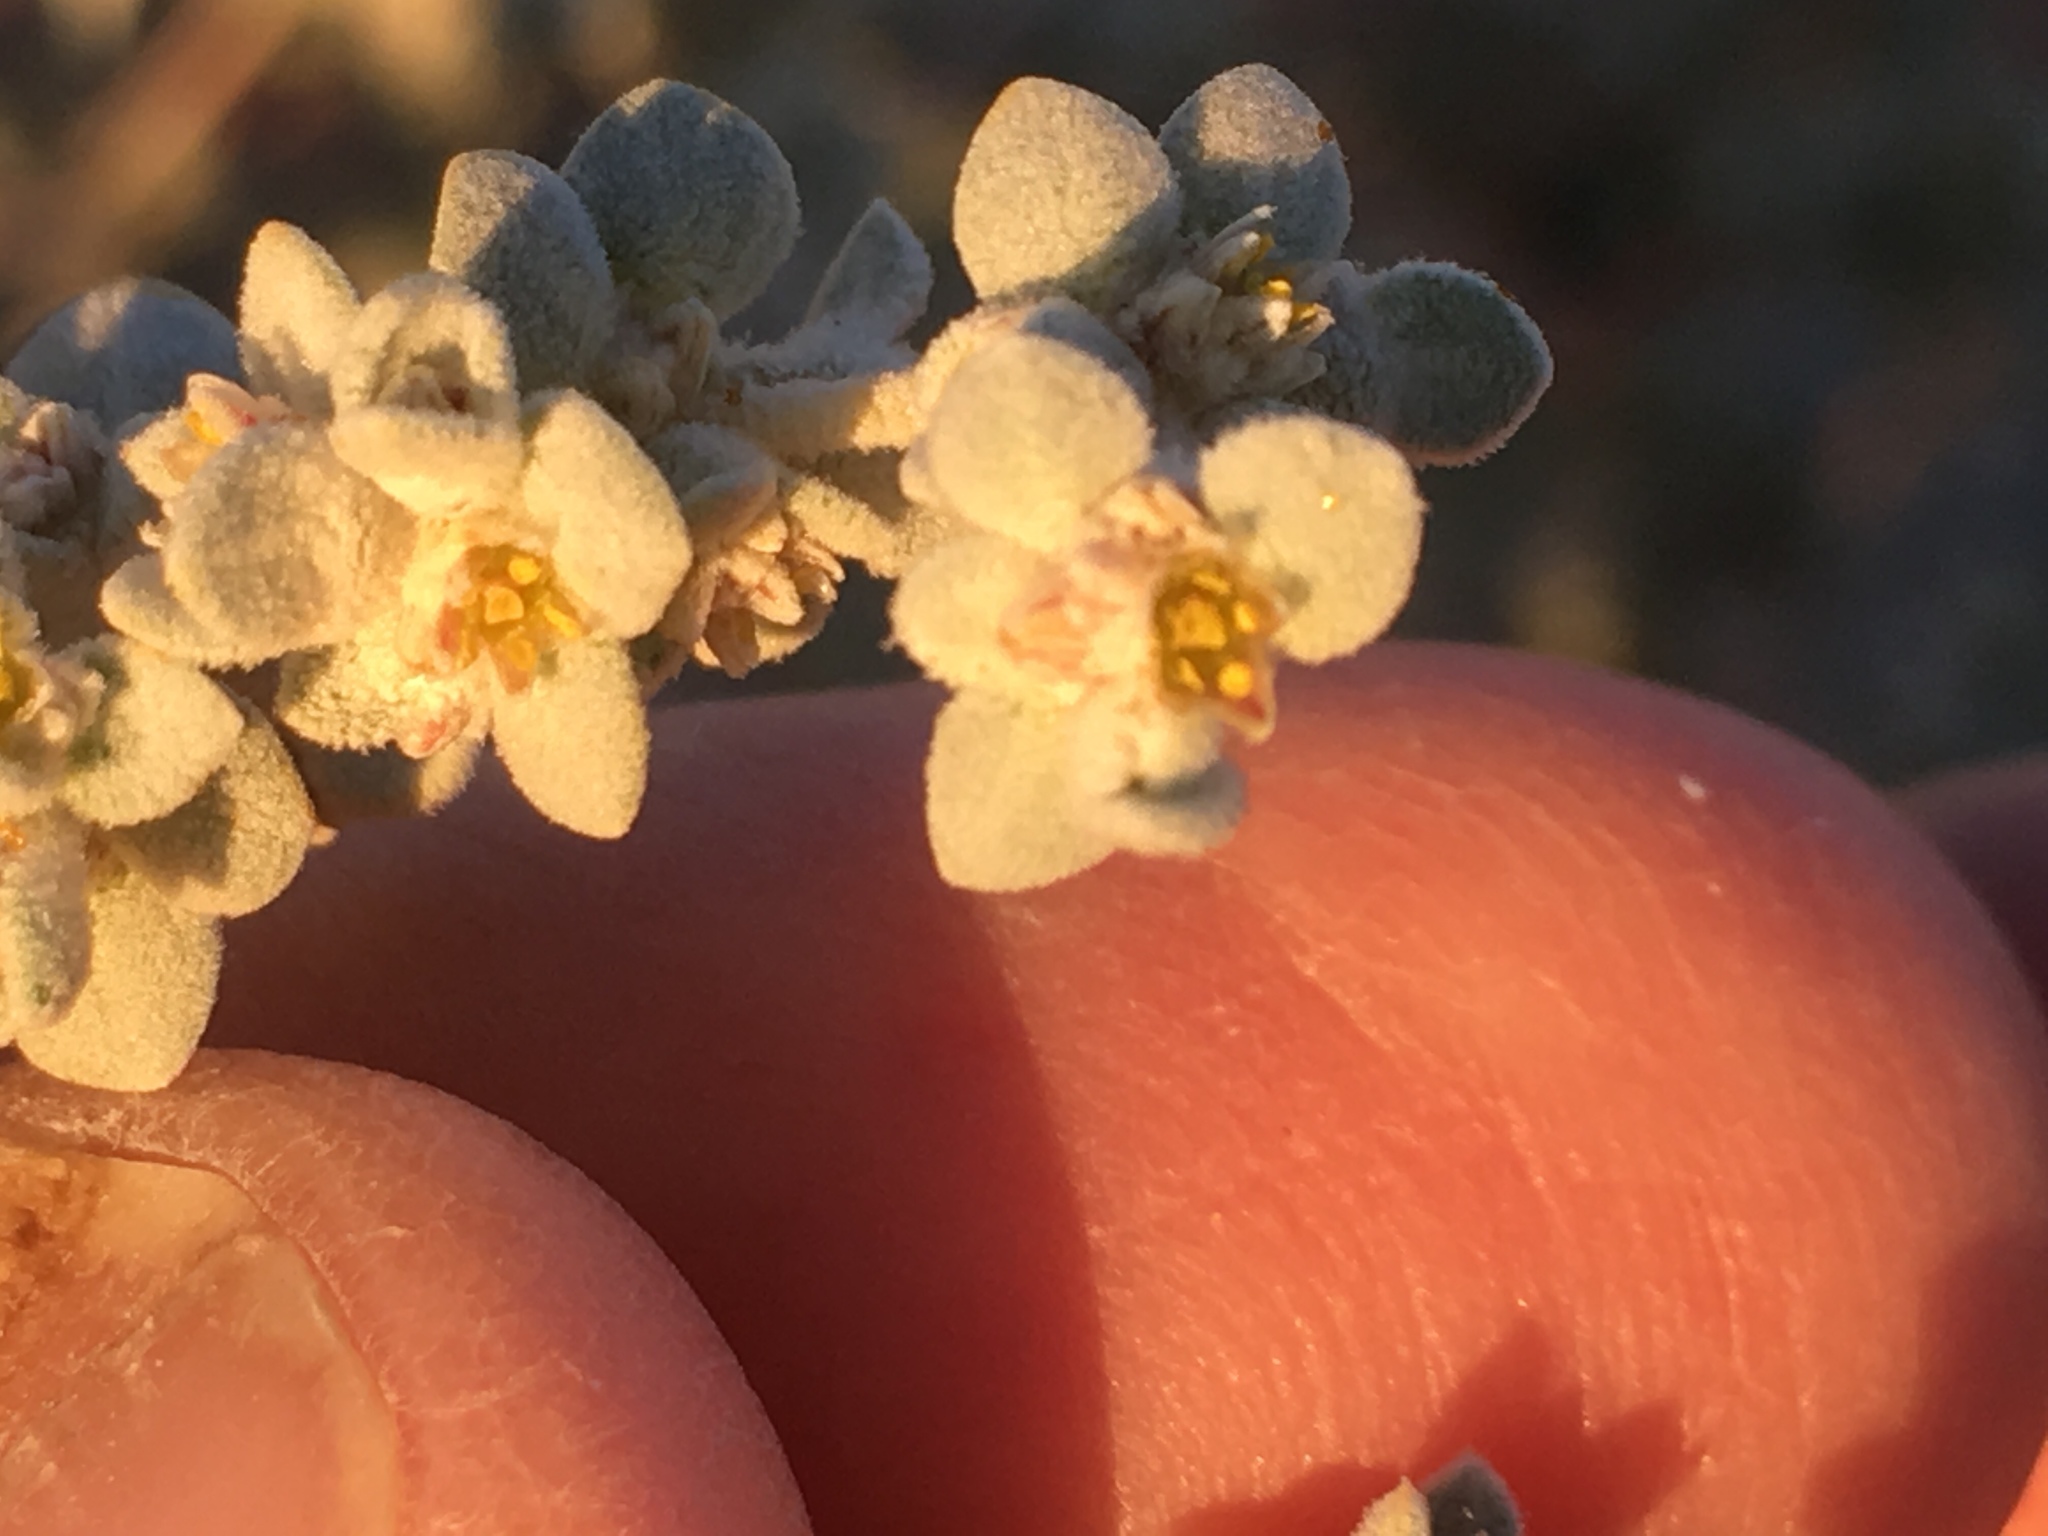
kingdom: Plantae
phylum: Tracheophyta
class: Magnoliopsida
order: Caryophyllales
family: Amaranthaceae
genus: Tidestromia
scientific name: Tidestromia suffruticosa
